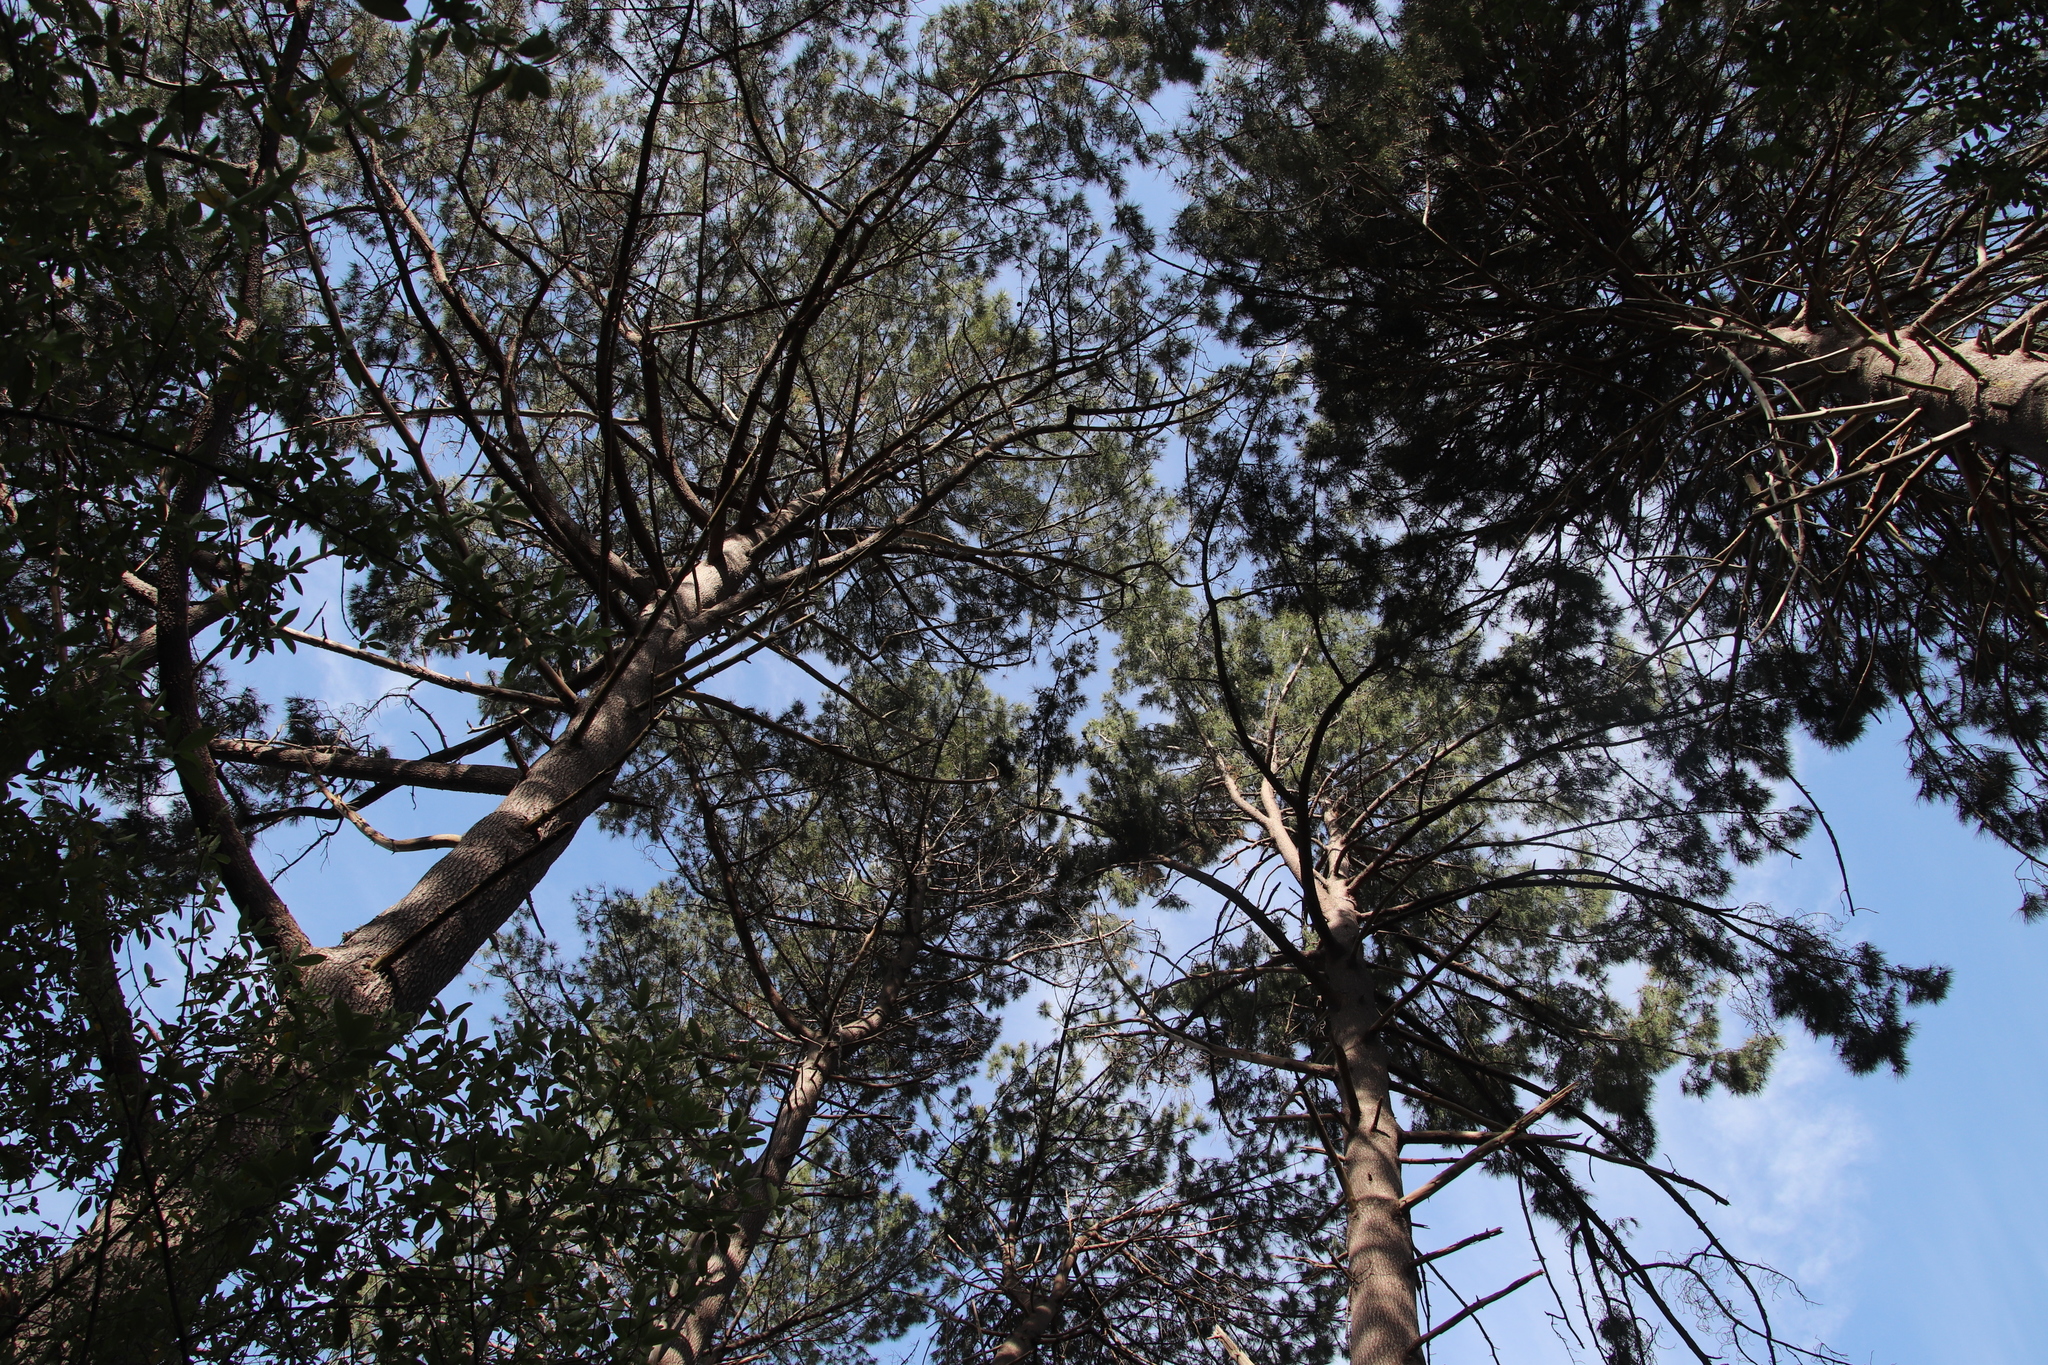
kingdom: Plantae
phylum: Tracheophyta
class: Pinopsida
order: Pinales
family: Pinaceae
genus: Pinus
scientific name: Pinus pinaster
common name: Maritime pine
